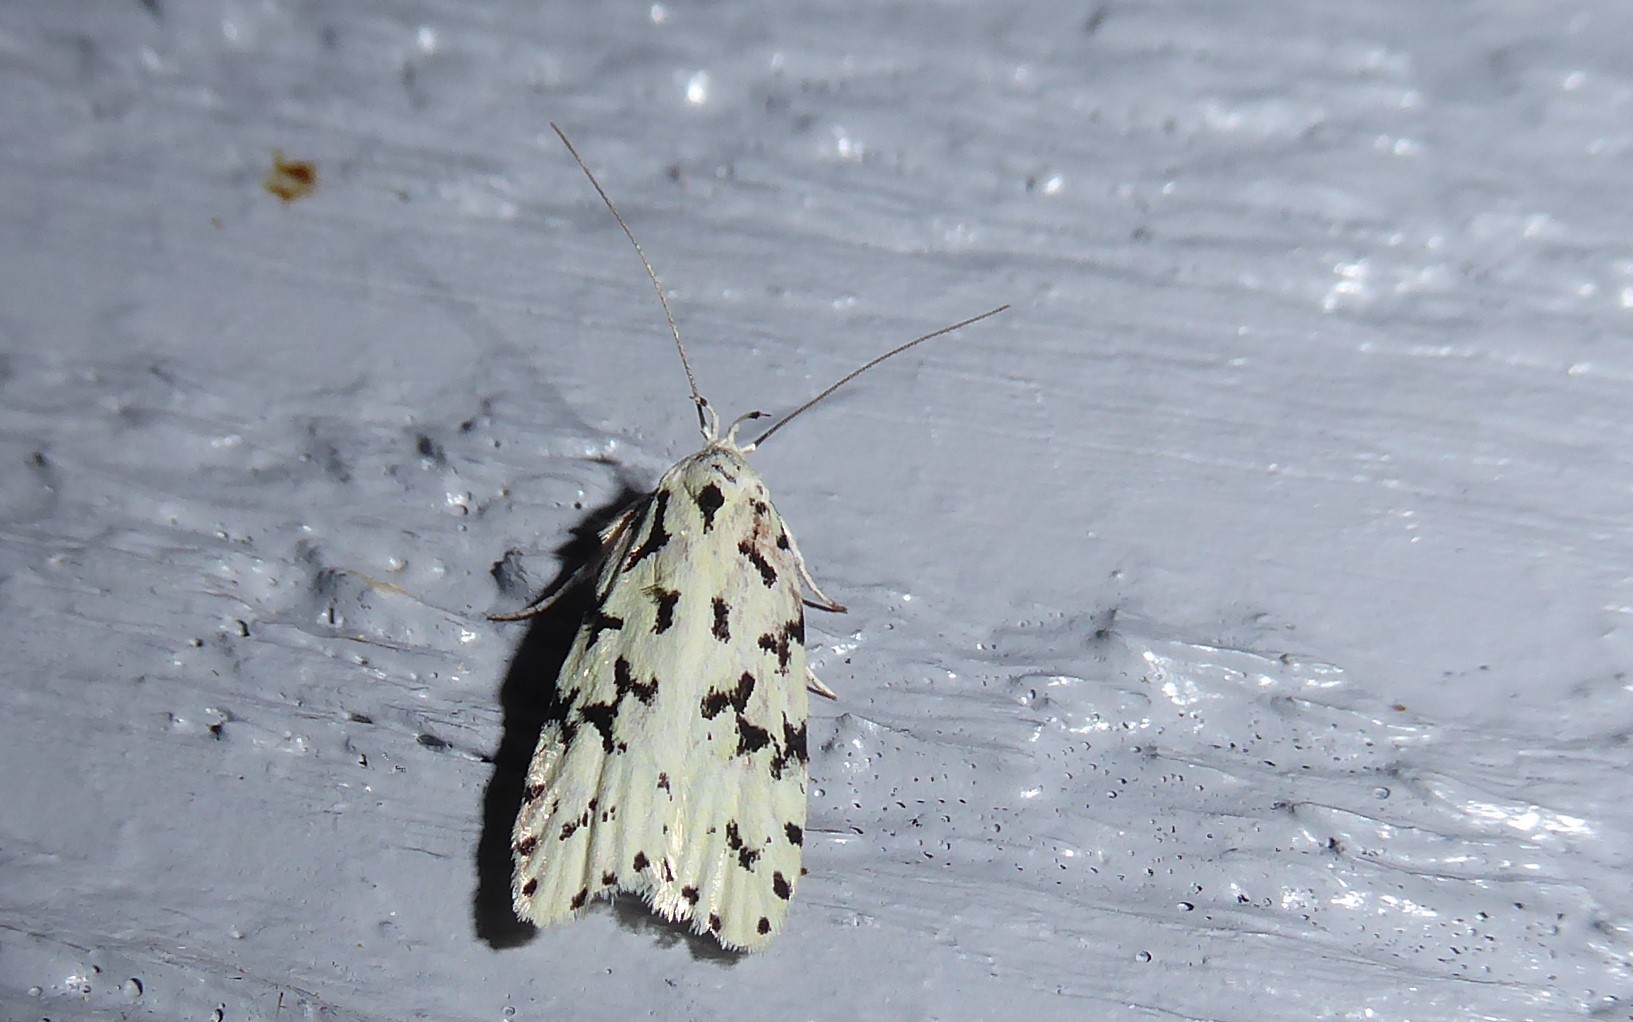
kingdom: Animalia
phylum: Arthropoda
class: Insecta
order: Lepidoptera
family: Oecophoridae
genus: Izatha
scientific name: Izatha huttoni
